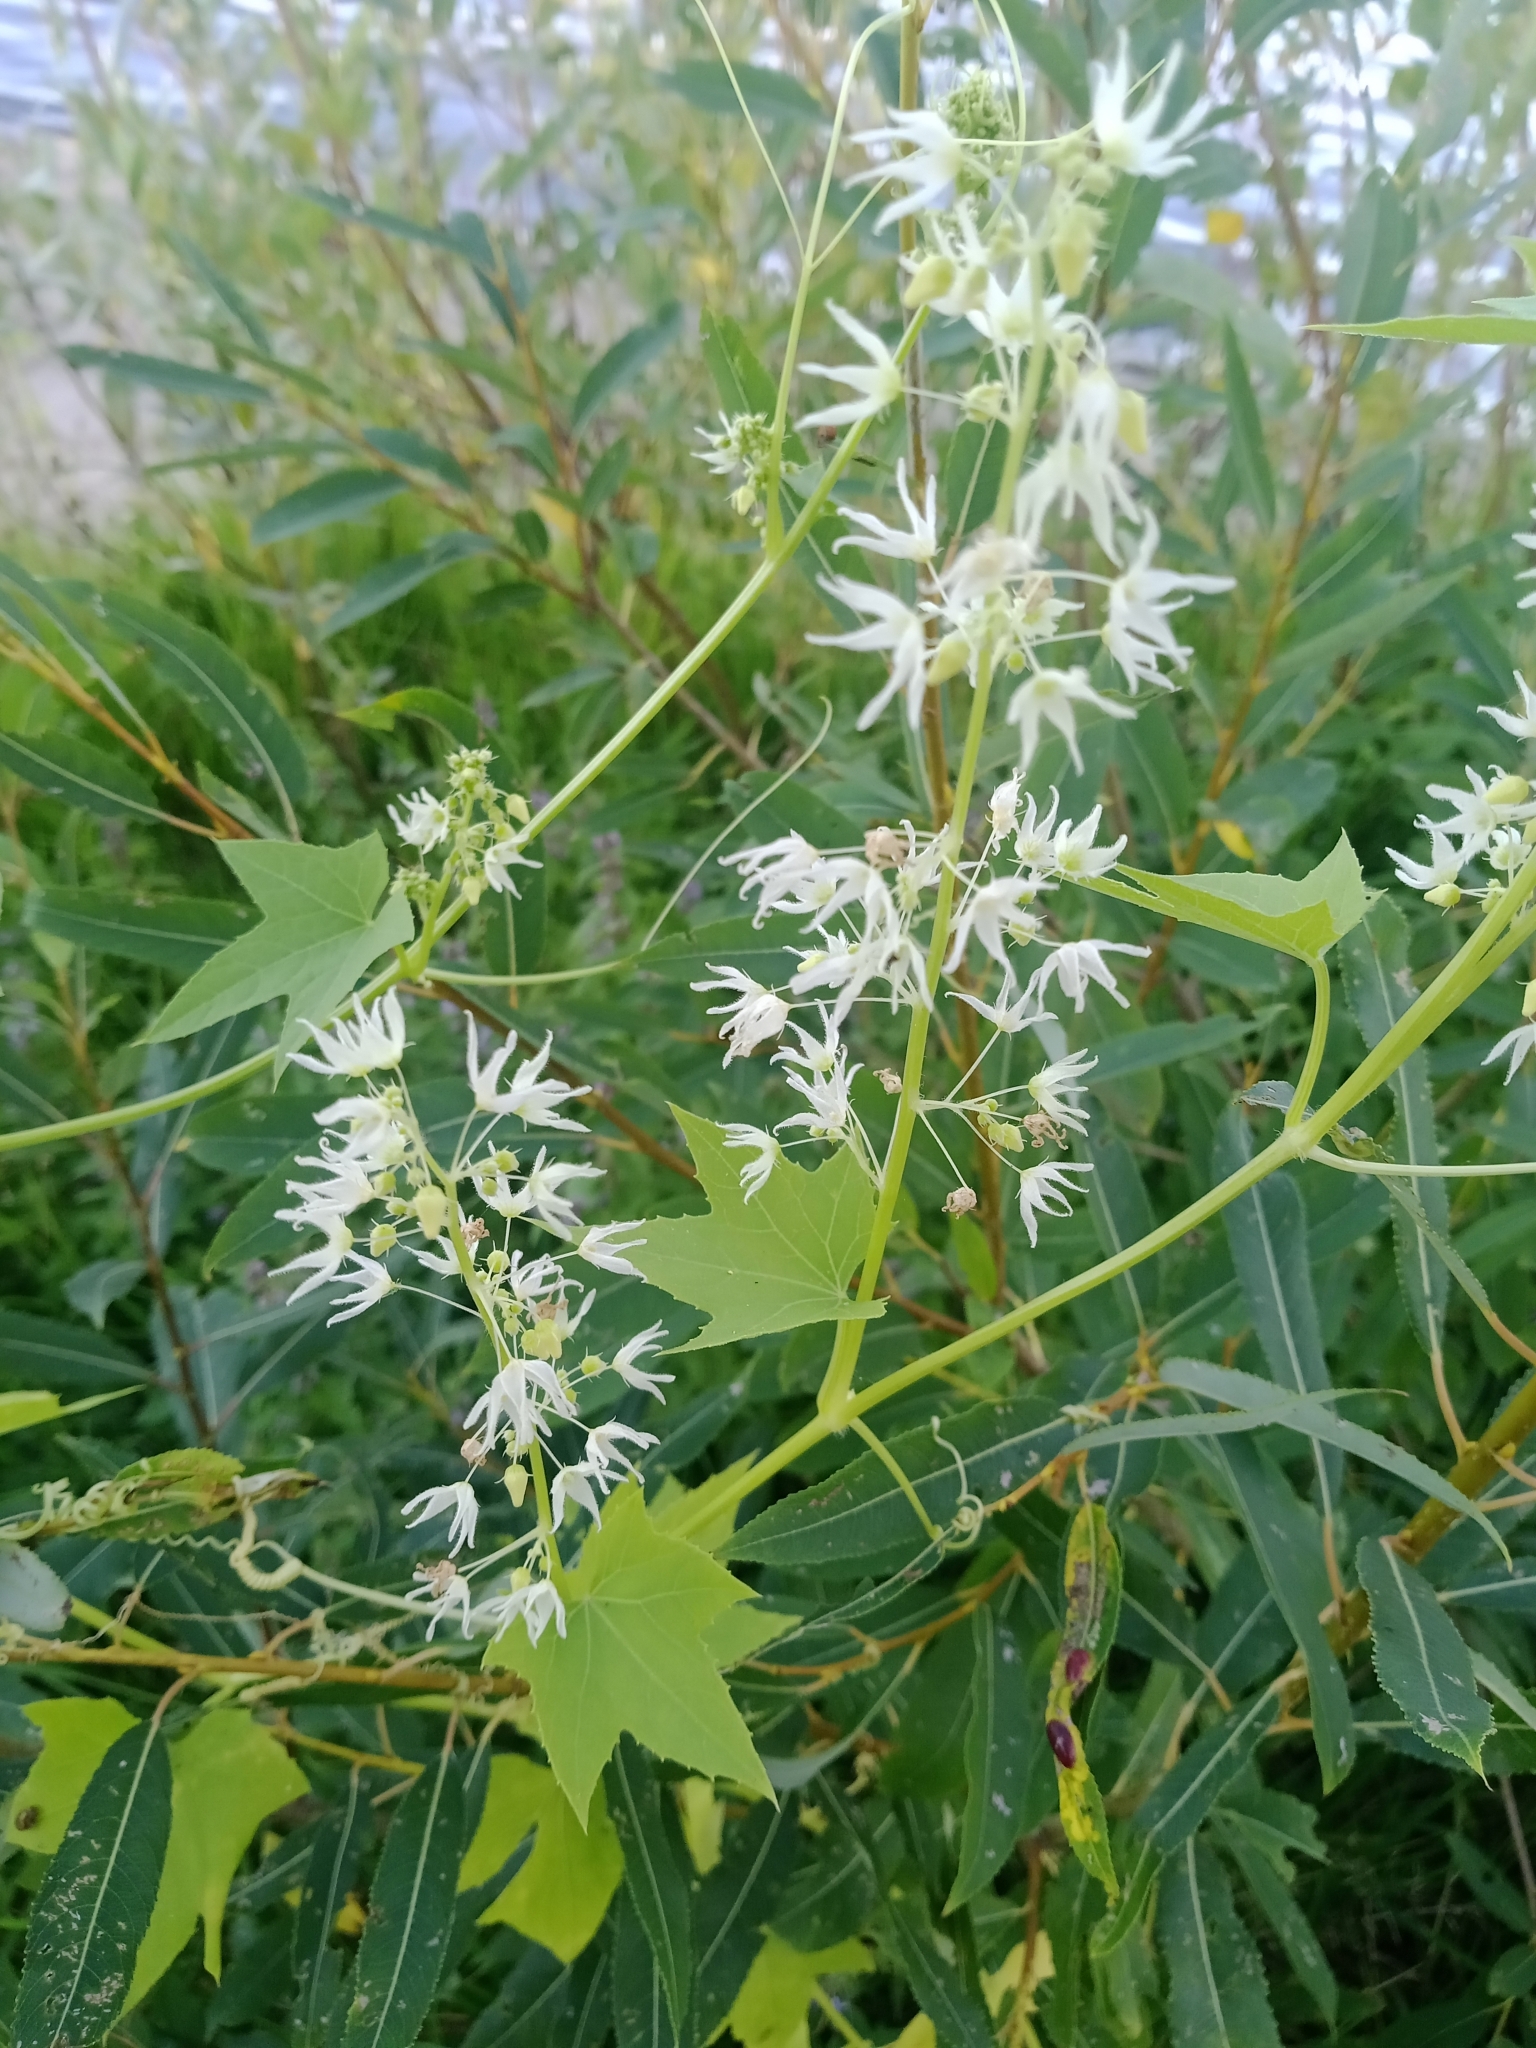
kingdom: Plantae
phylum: Tracheophyta
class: Magnoliopsida
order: Cucurbitales
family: Cucurbitaceae
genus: Echinocystis
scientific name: Echinocystis lobata
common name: Wild cucumber
